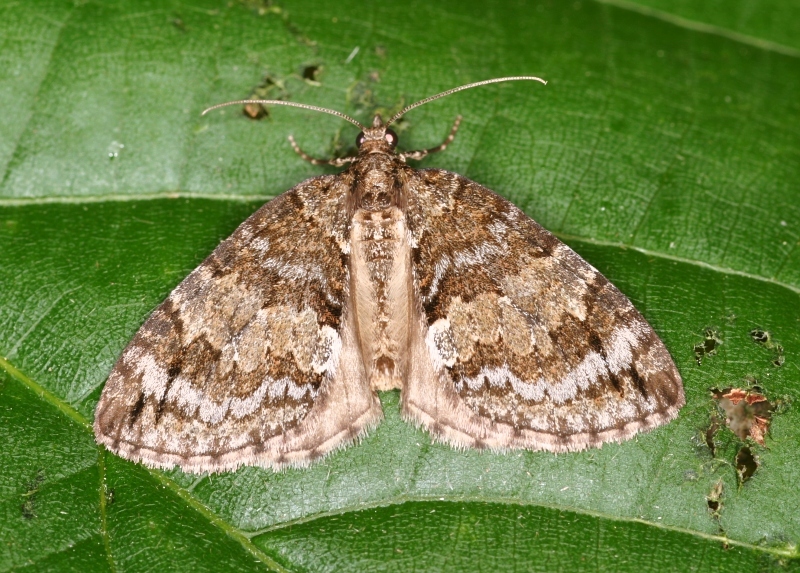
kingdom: Animalia
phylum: Arthropoda
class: Insecta
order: Lepidoptera
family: Geometridae
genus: Hydriomena
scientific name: Hydriomena impluviata
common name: May highflyer
